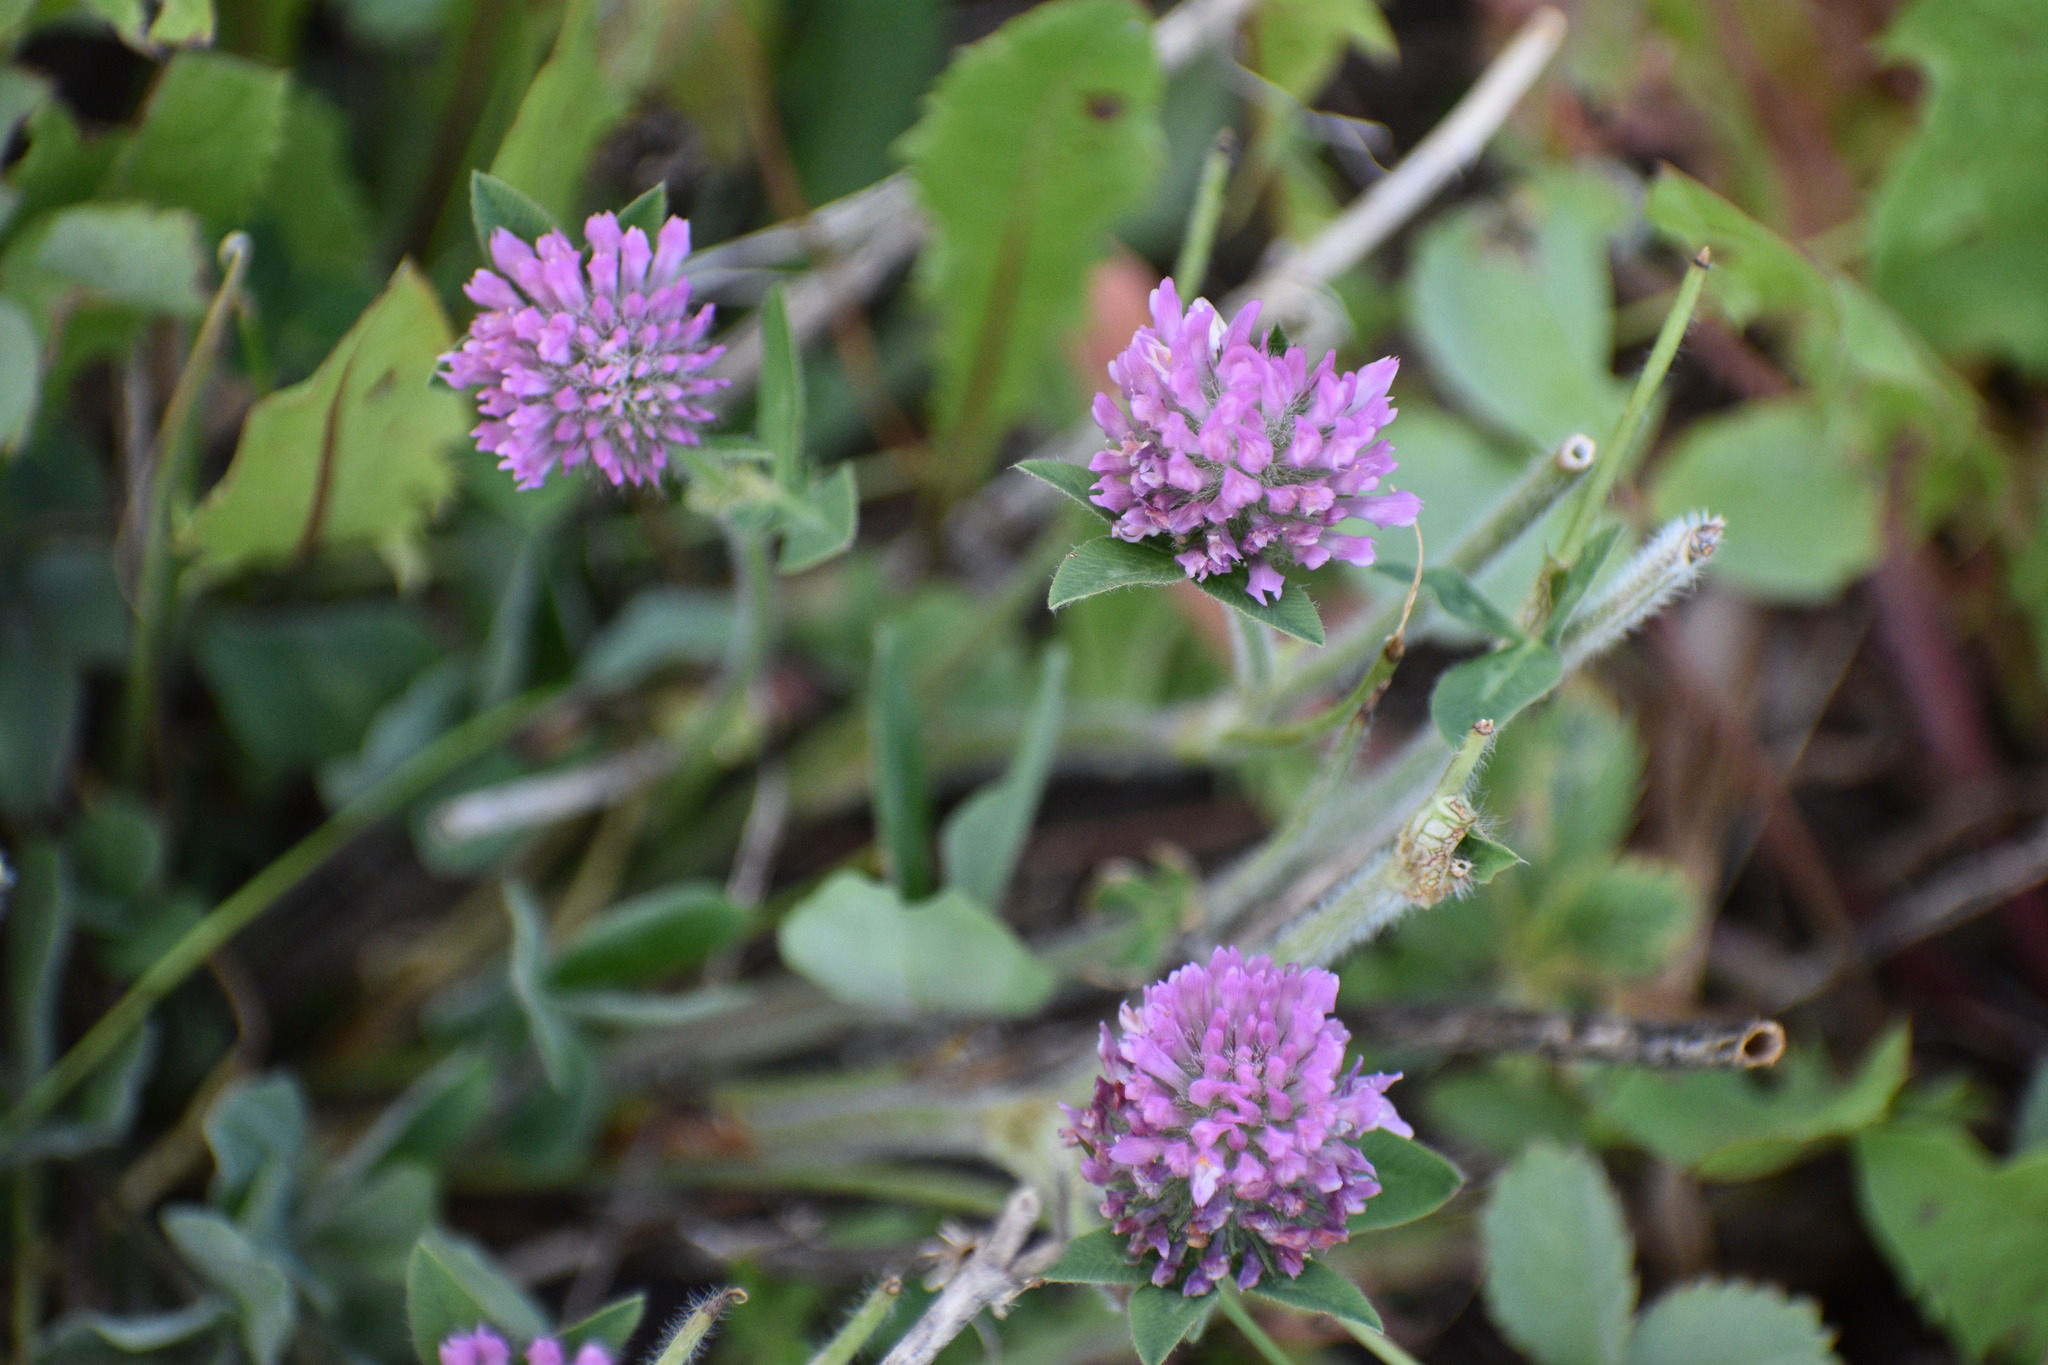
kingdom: Plantae
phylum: Tracheophyta
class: Magnoliopsida
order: Fabales
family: Fabaceae
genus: Trifolium
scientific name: Trifolium pratense
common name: Red clover
